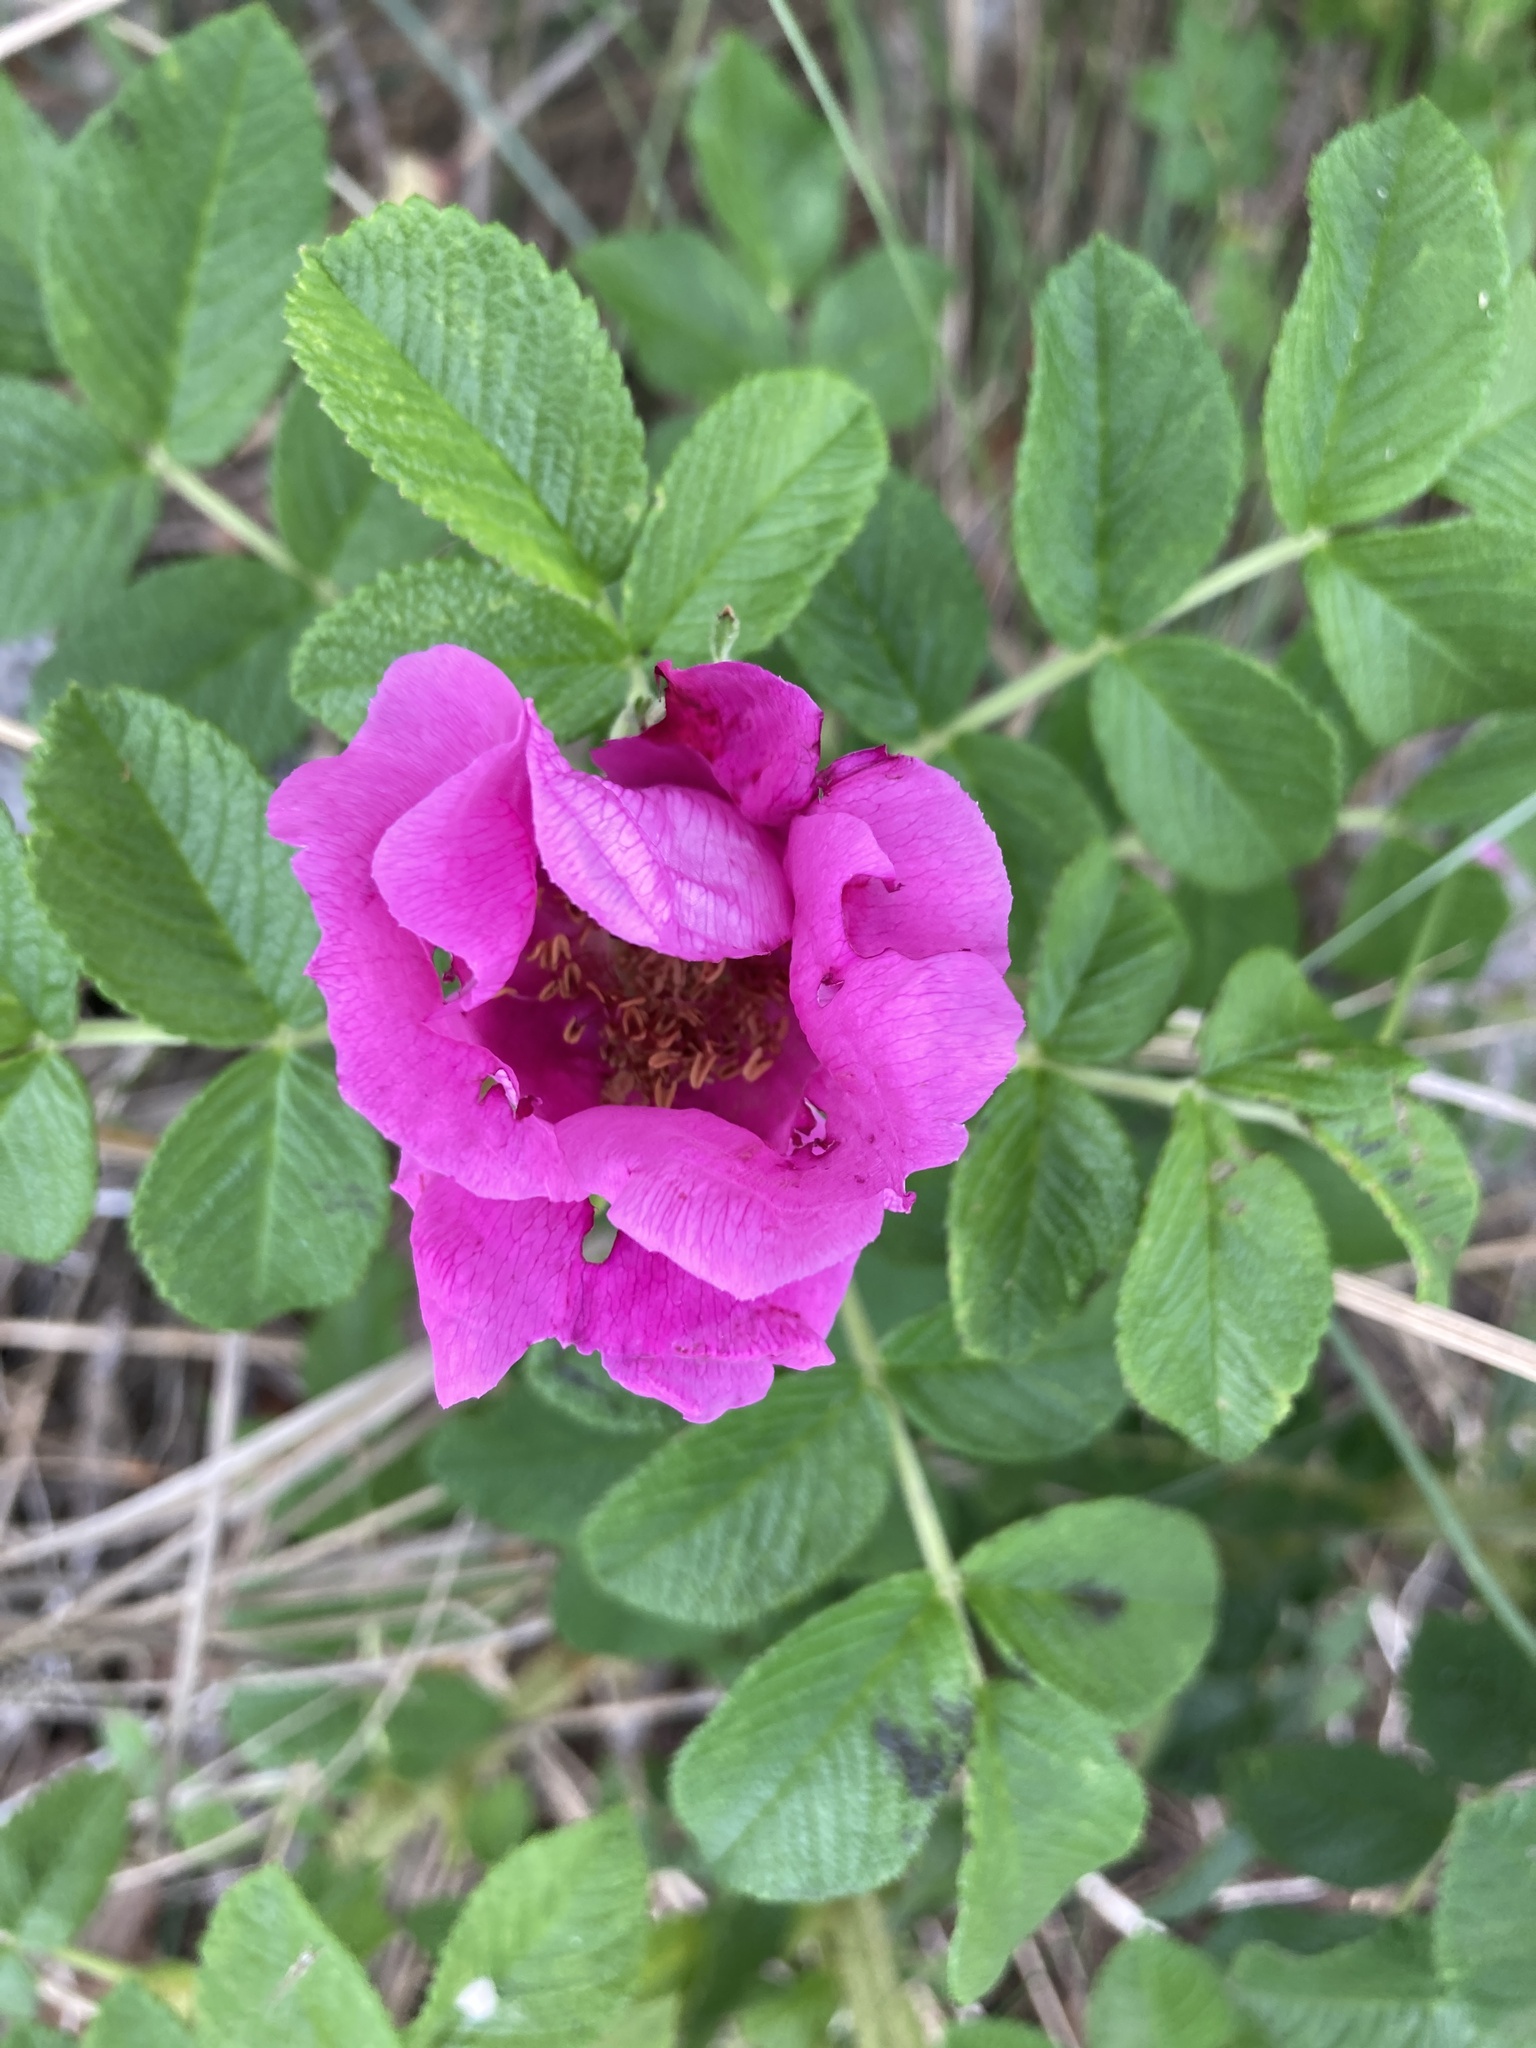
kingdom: Plantae
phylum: Tracheophyta
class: Magnoliopsida
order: Rosales
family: Rosaceae
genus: Rosa
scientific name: Rosa rugosa
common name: Japanese rose
